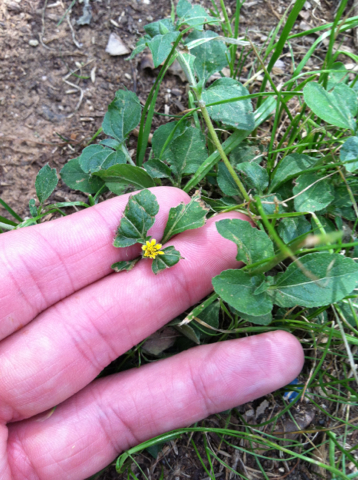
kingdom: Plantae
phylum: Tracheophyta
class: Magnoliopsida
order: Asterales
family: Asteraceae
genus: Calyptocarpus
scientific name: Calyptocarpus vialis
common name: Straggler daisy
